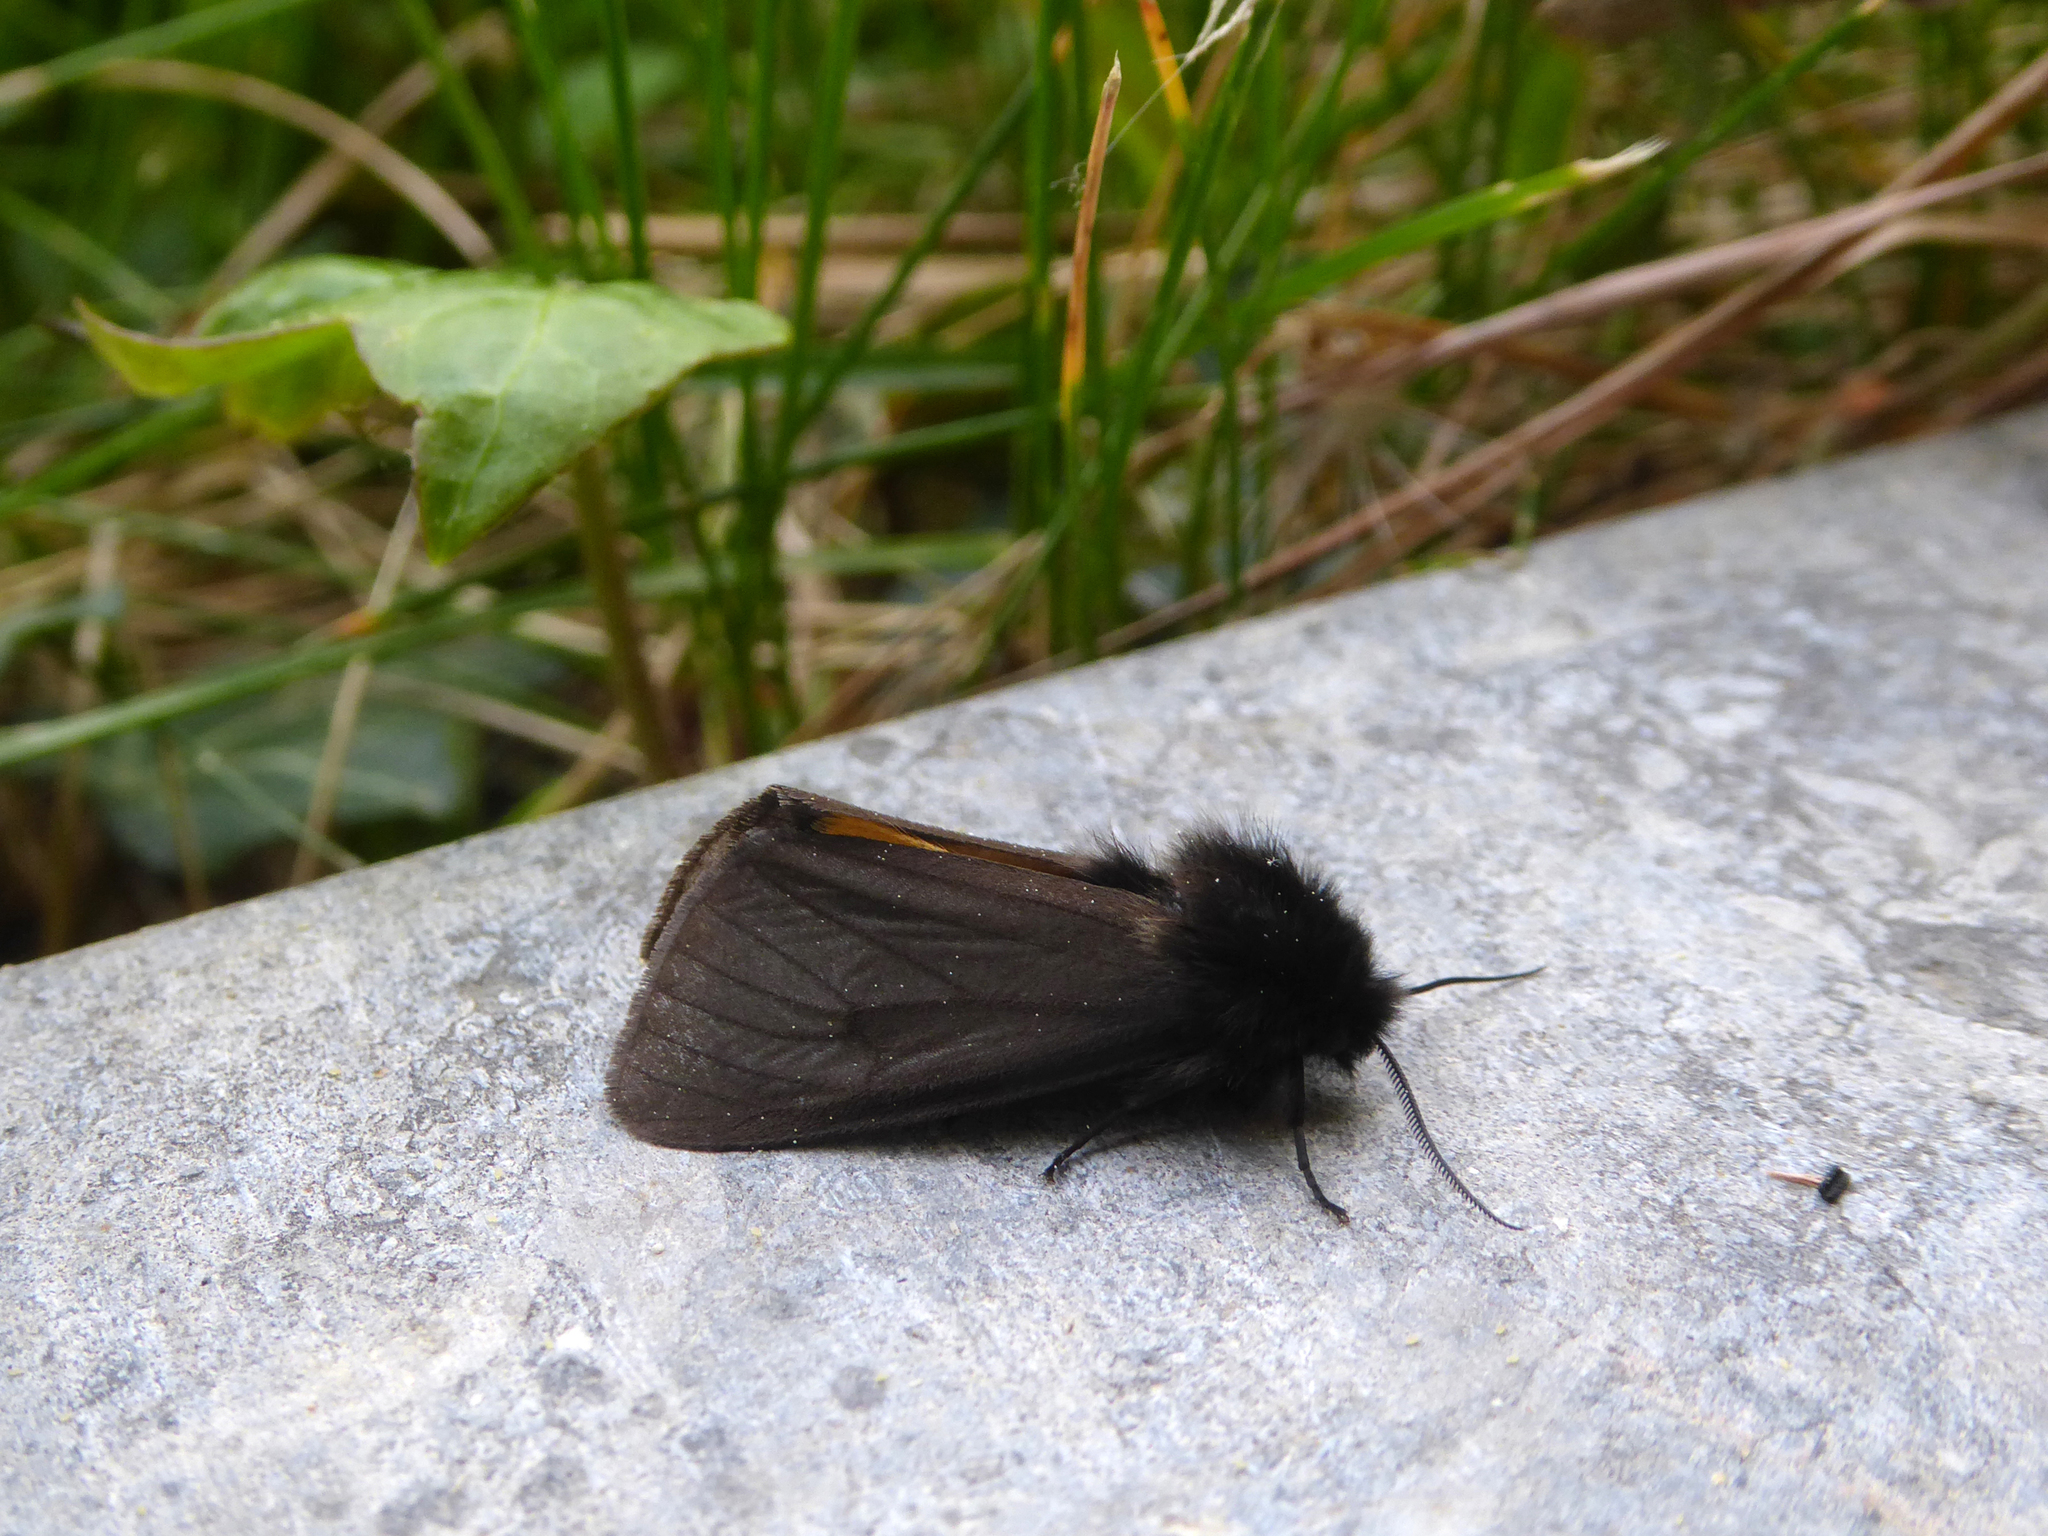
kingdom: Animalia
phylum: Arthropoda
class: Insecta
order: Lepidoptera
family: Erebidae
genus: Epatolmis
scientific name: Epatolmis luctifera
